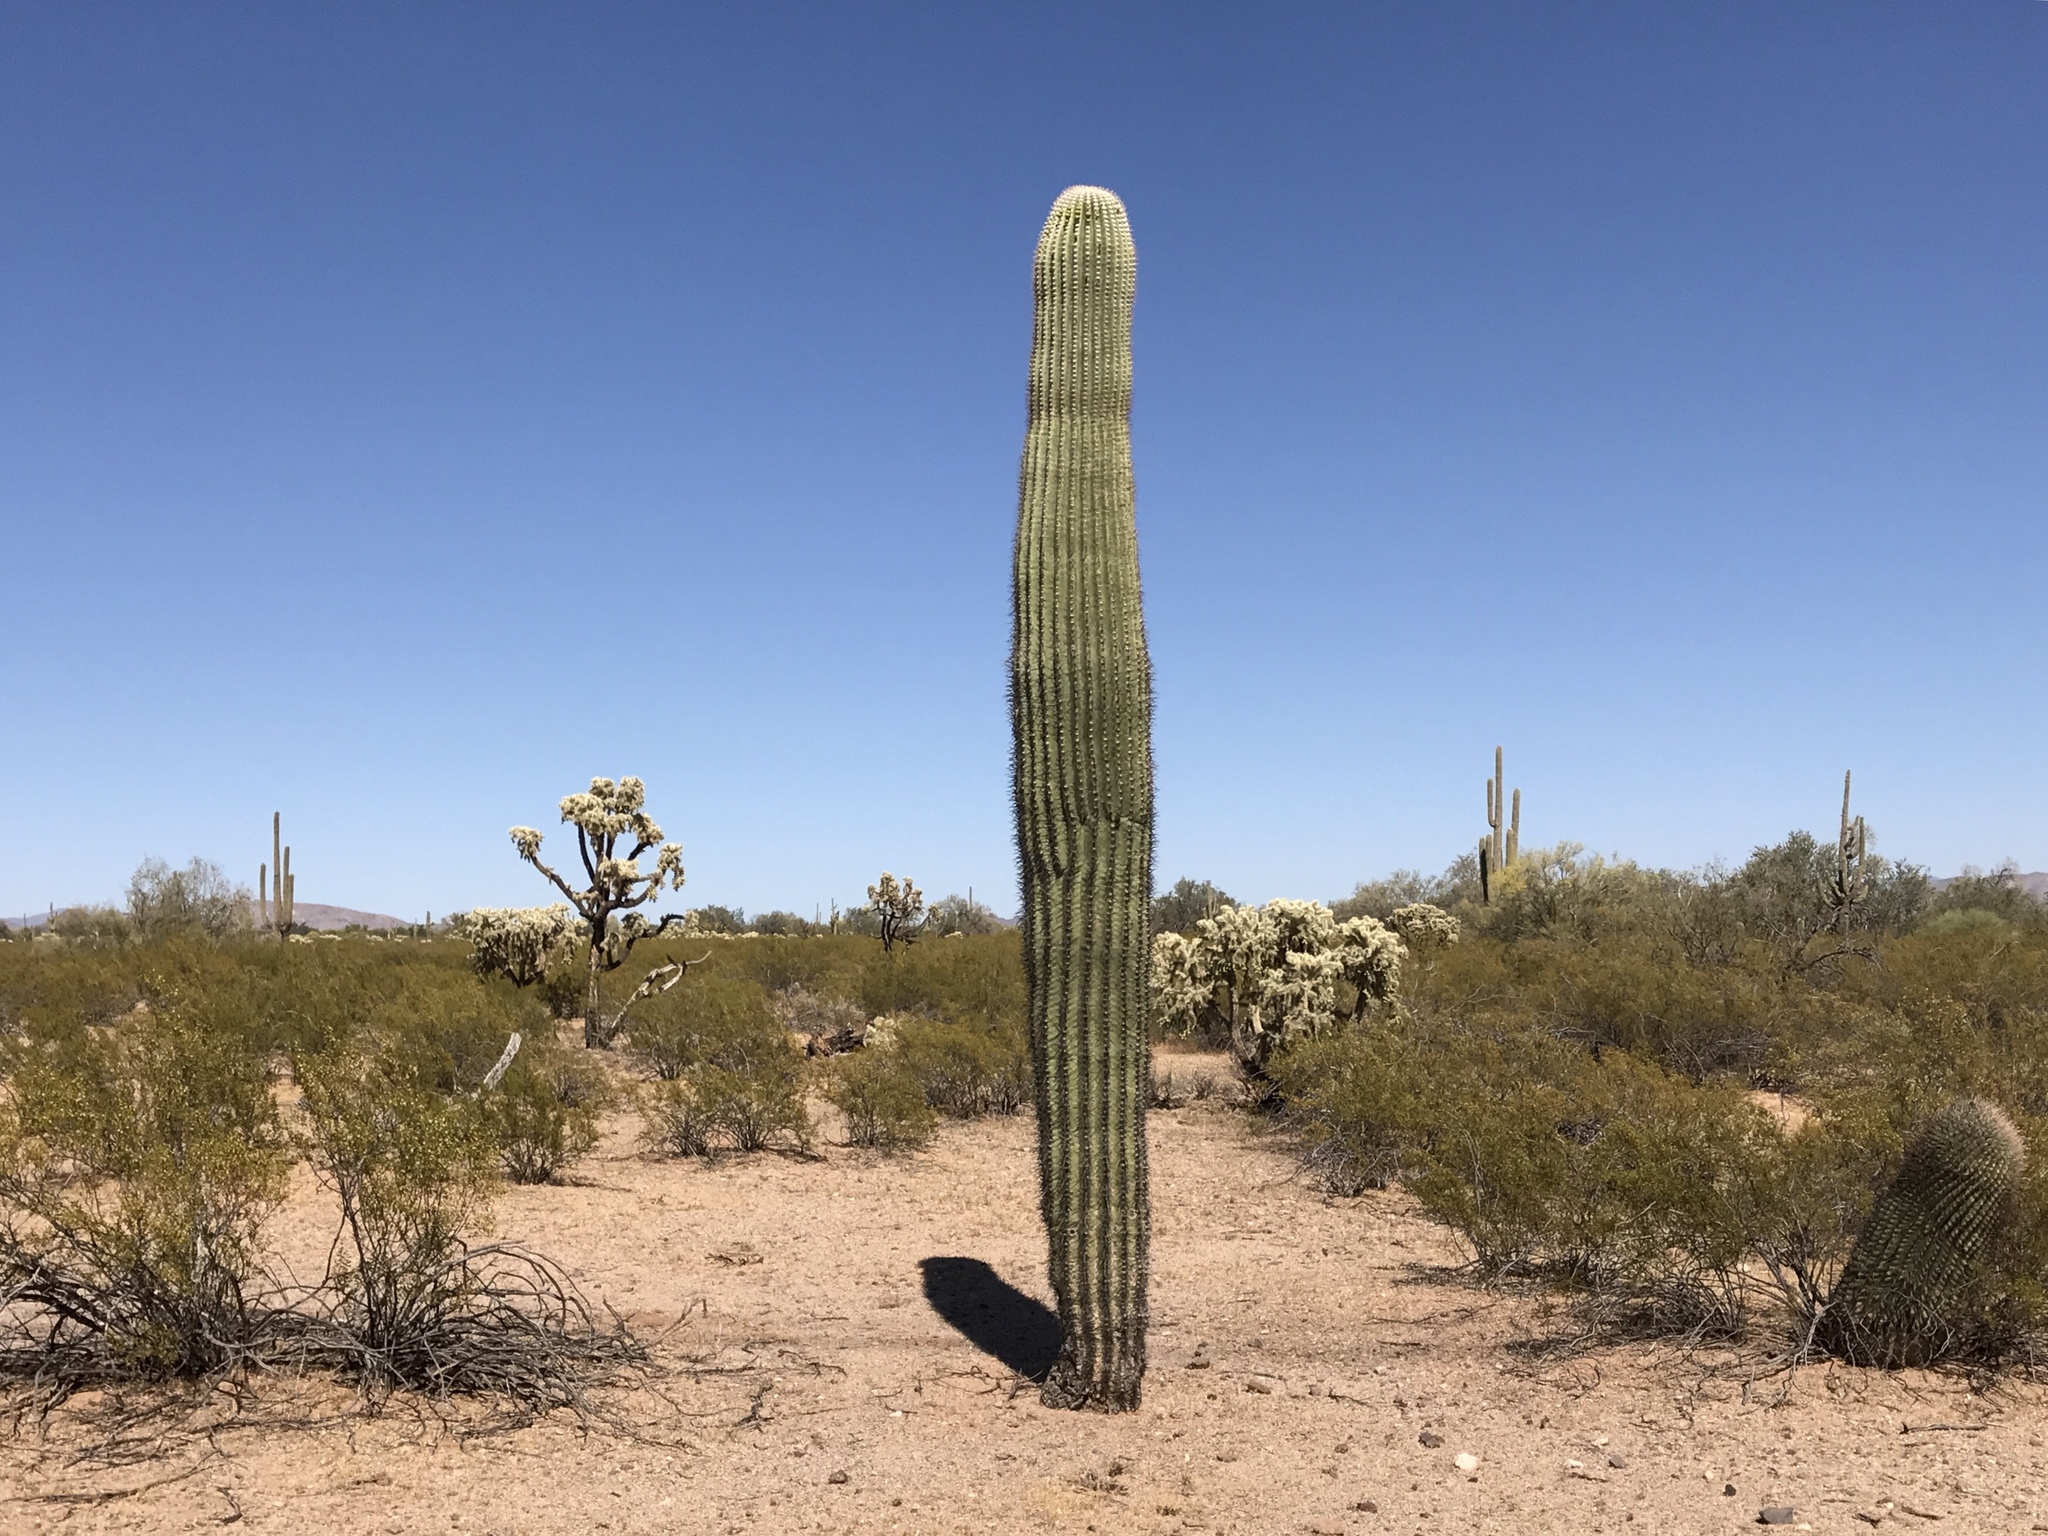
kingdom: Plantae
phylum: Tracheophyta
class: Magnoliopsida
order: Caryophyllales
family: Cactaceae
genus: Carnegiea
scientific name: Carnegiea gigantea
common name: Saguaro
